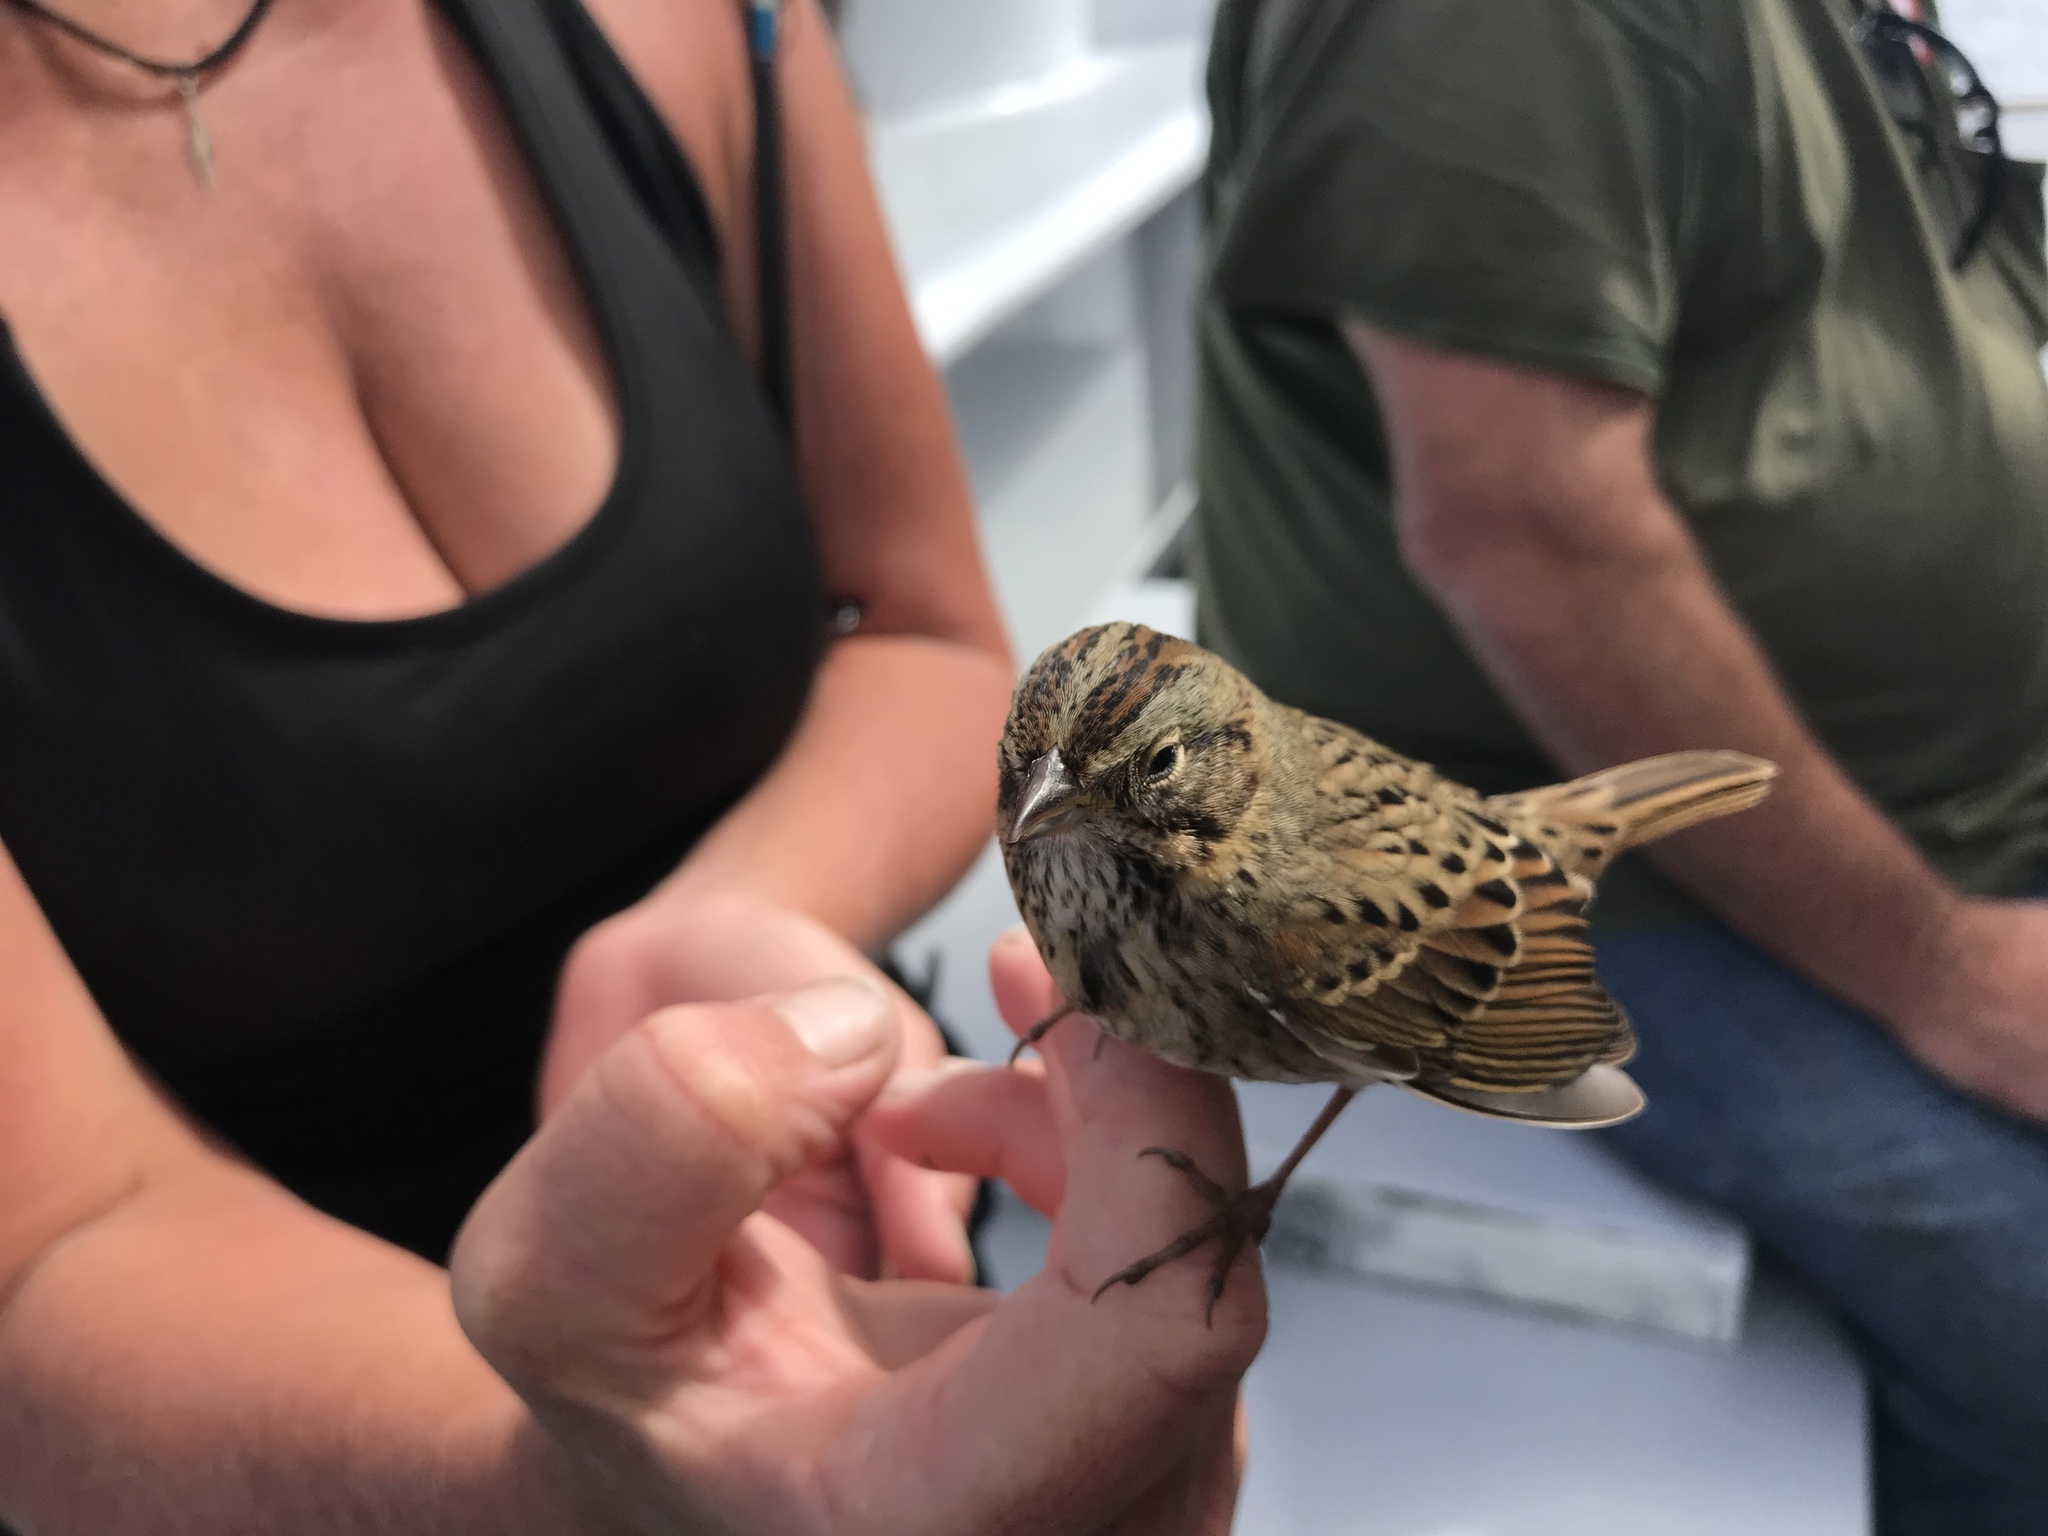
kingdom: Animalia
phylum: Chordata
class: Aves
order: Passeriformes
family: Passerellidae
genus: Melospiza
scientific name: Melospiza lincolnii
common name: Lincoln's sparrow
